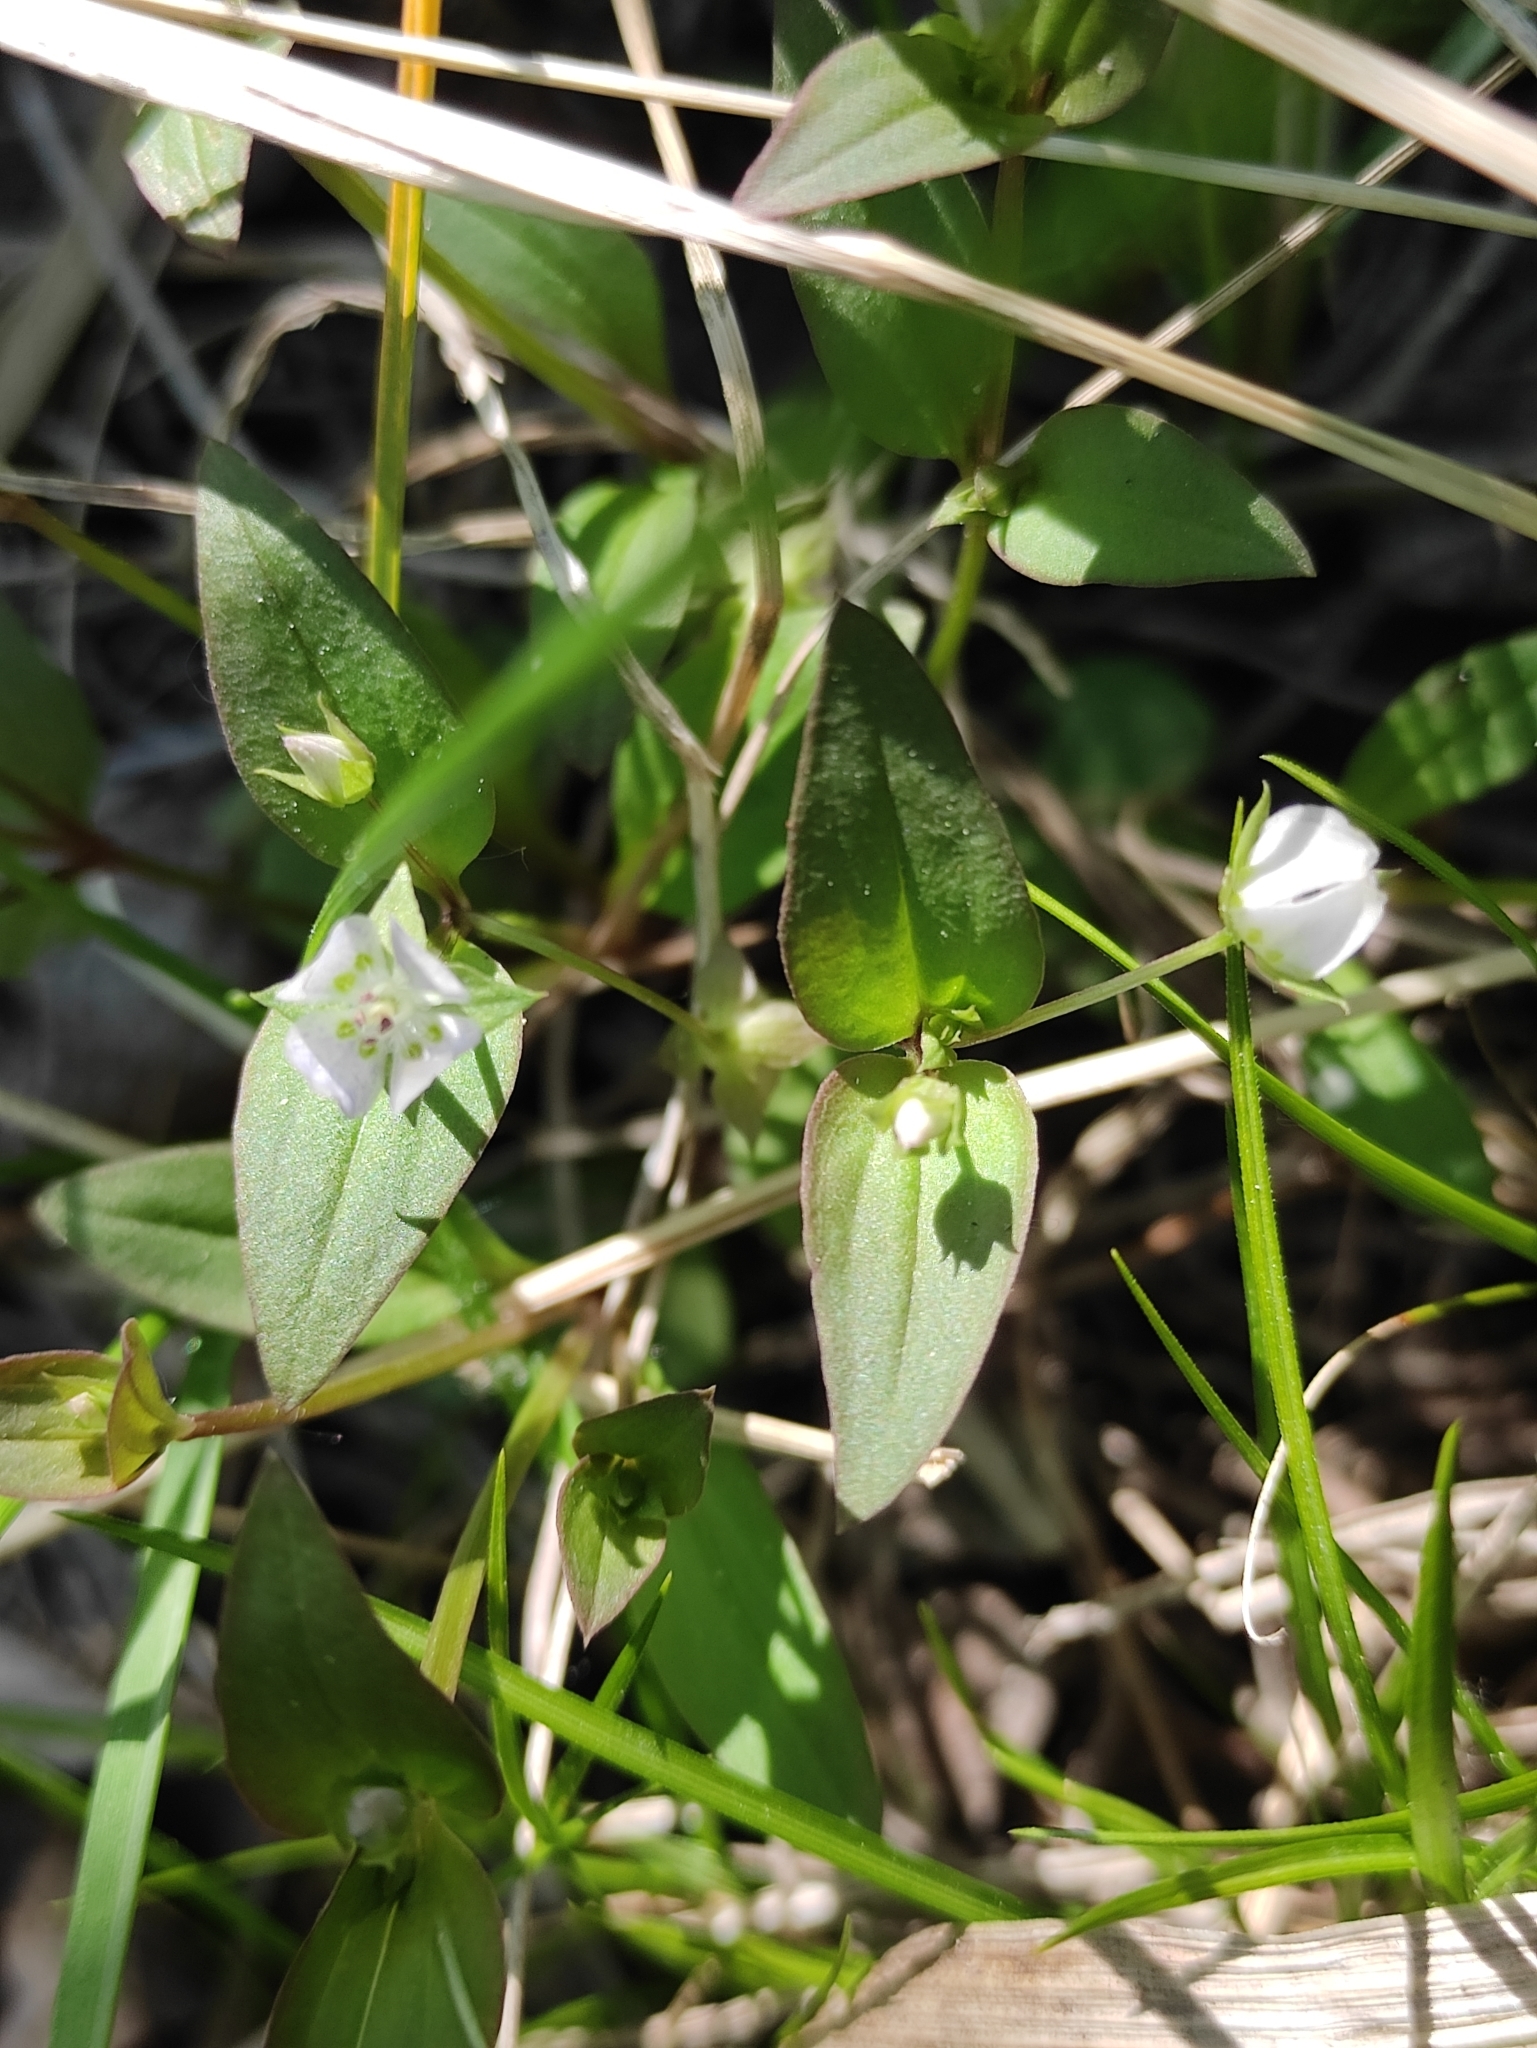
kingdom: Plantae
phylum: Tracheophyta
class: Magnoliopsida
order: Gentianales
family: Gentianaceae
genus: Swertia
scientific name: Swertia dichotoma
